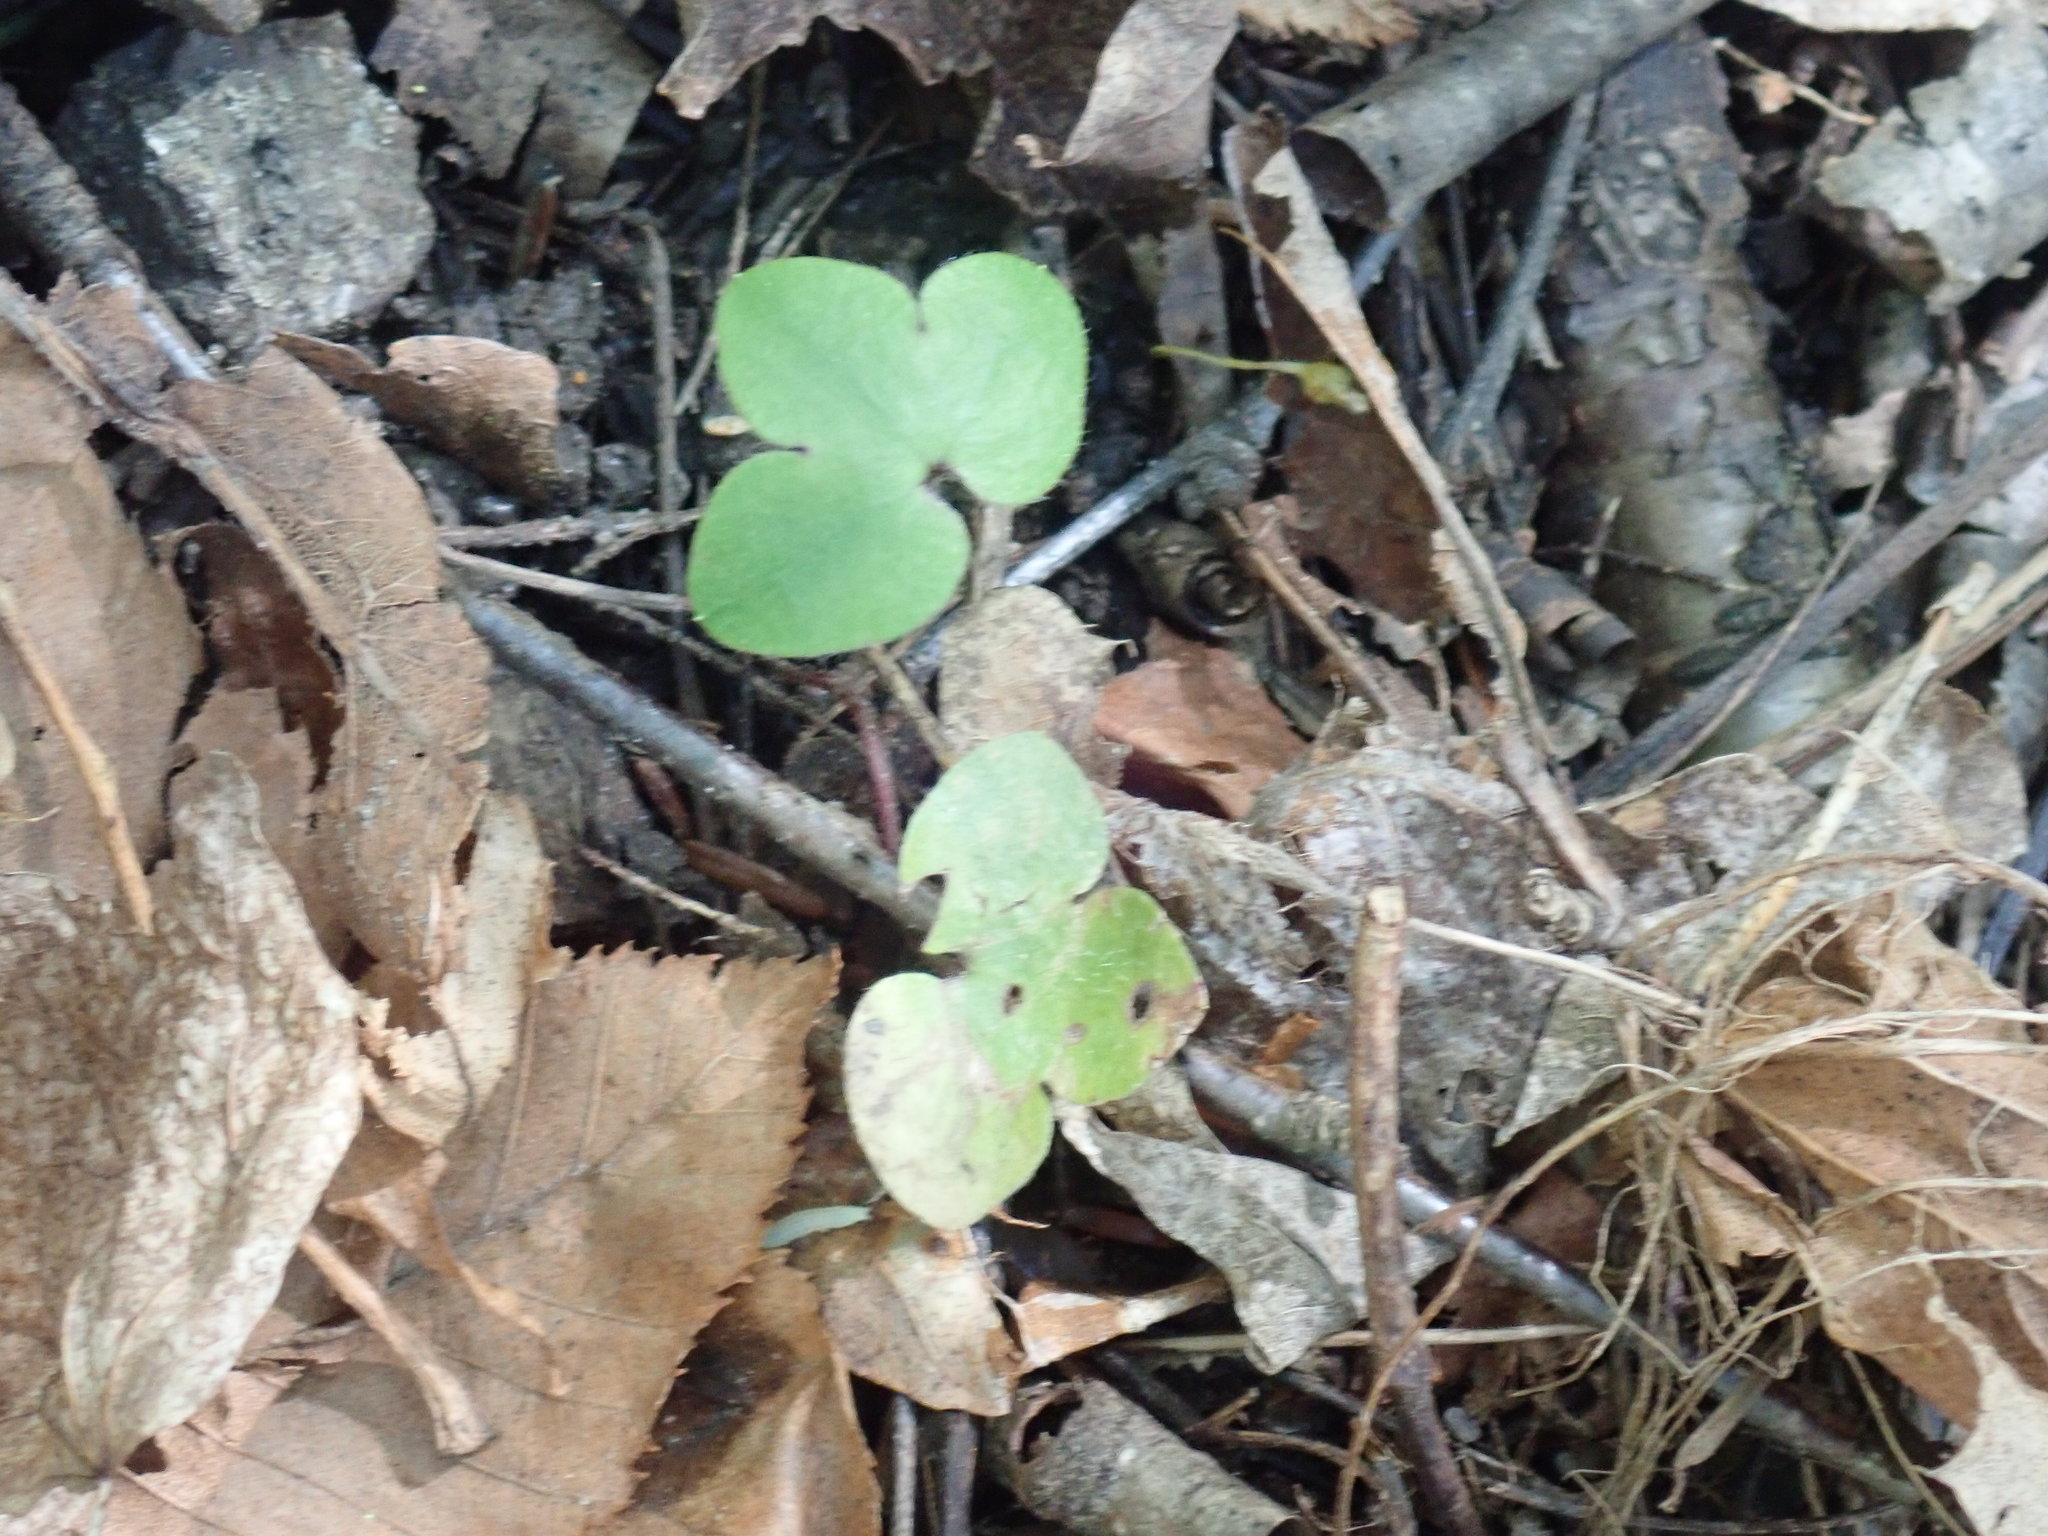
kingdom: Plantae
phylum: Tracheophyta
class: Magnoliopsida
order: Ranunculales
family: Ranunculaceae
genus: Hepatica
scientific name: Hepatica americana
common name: American hepatica
